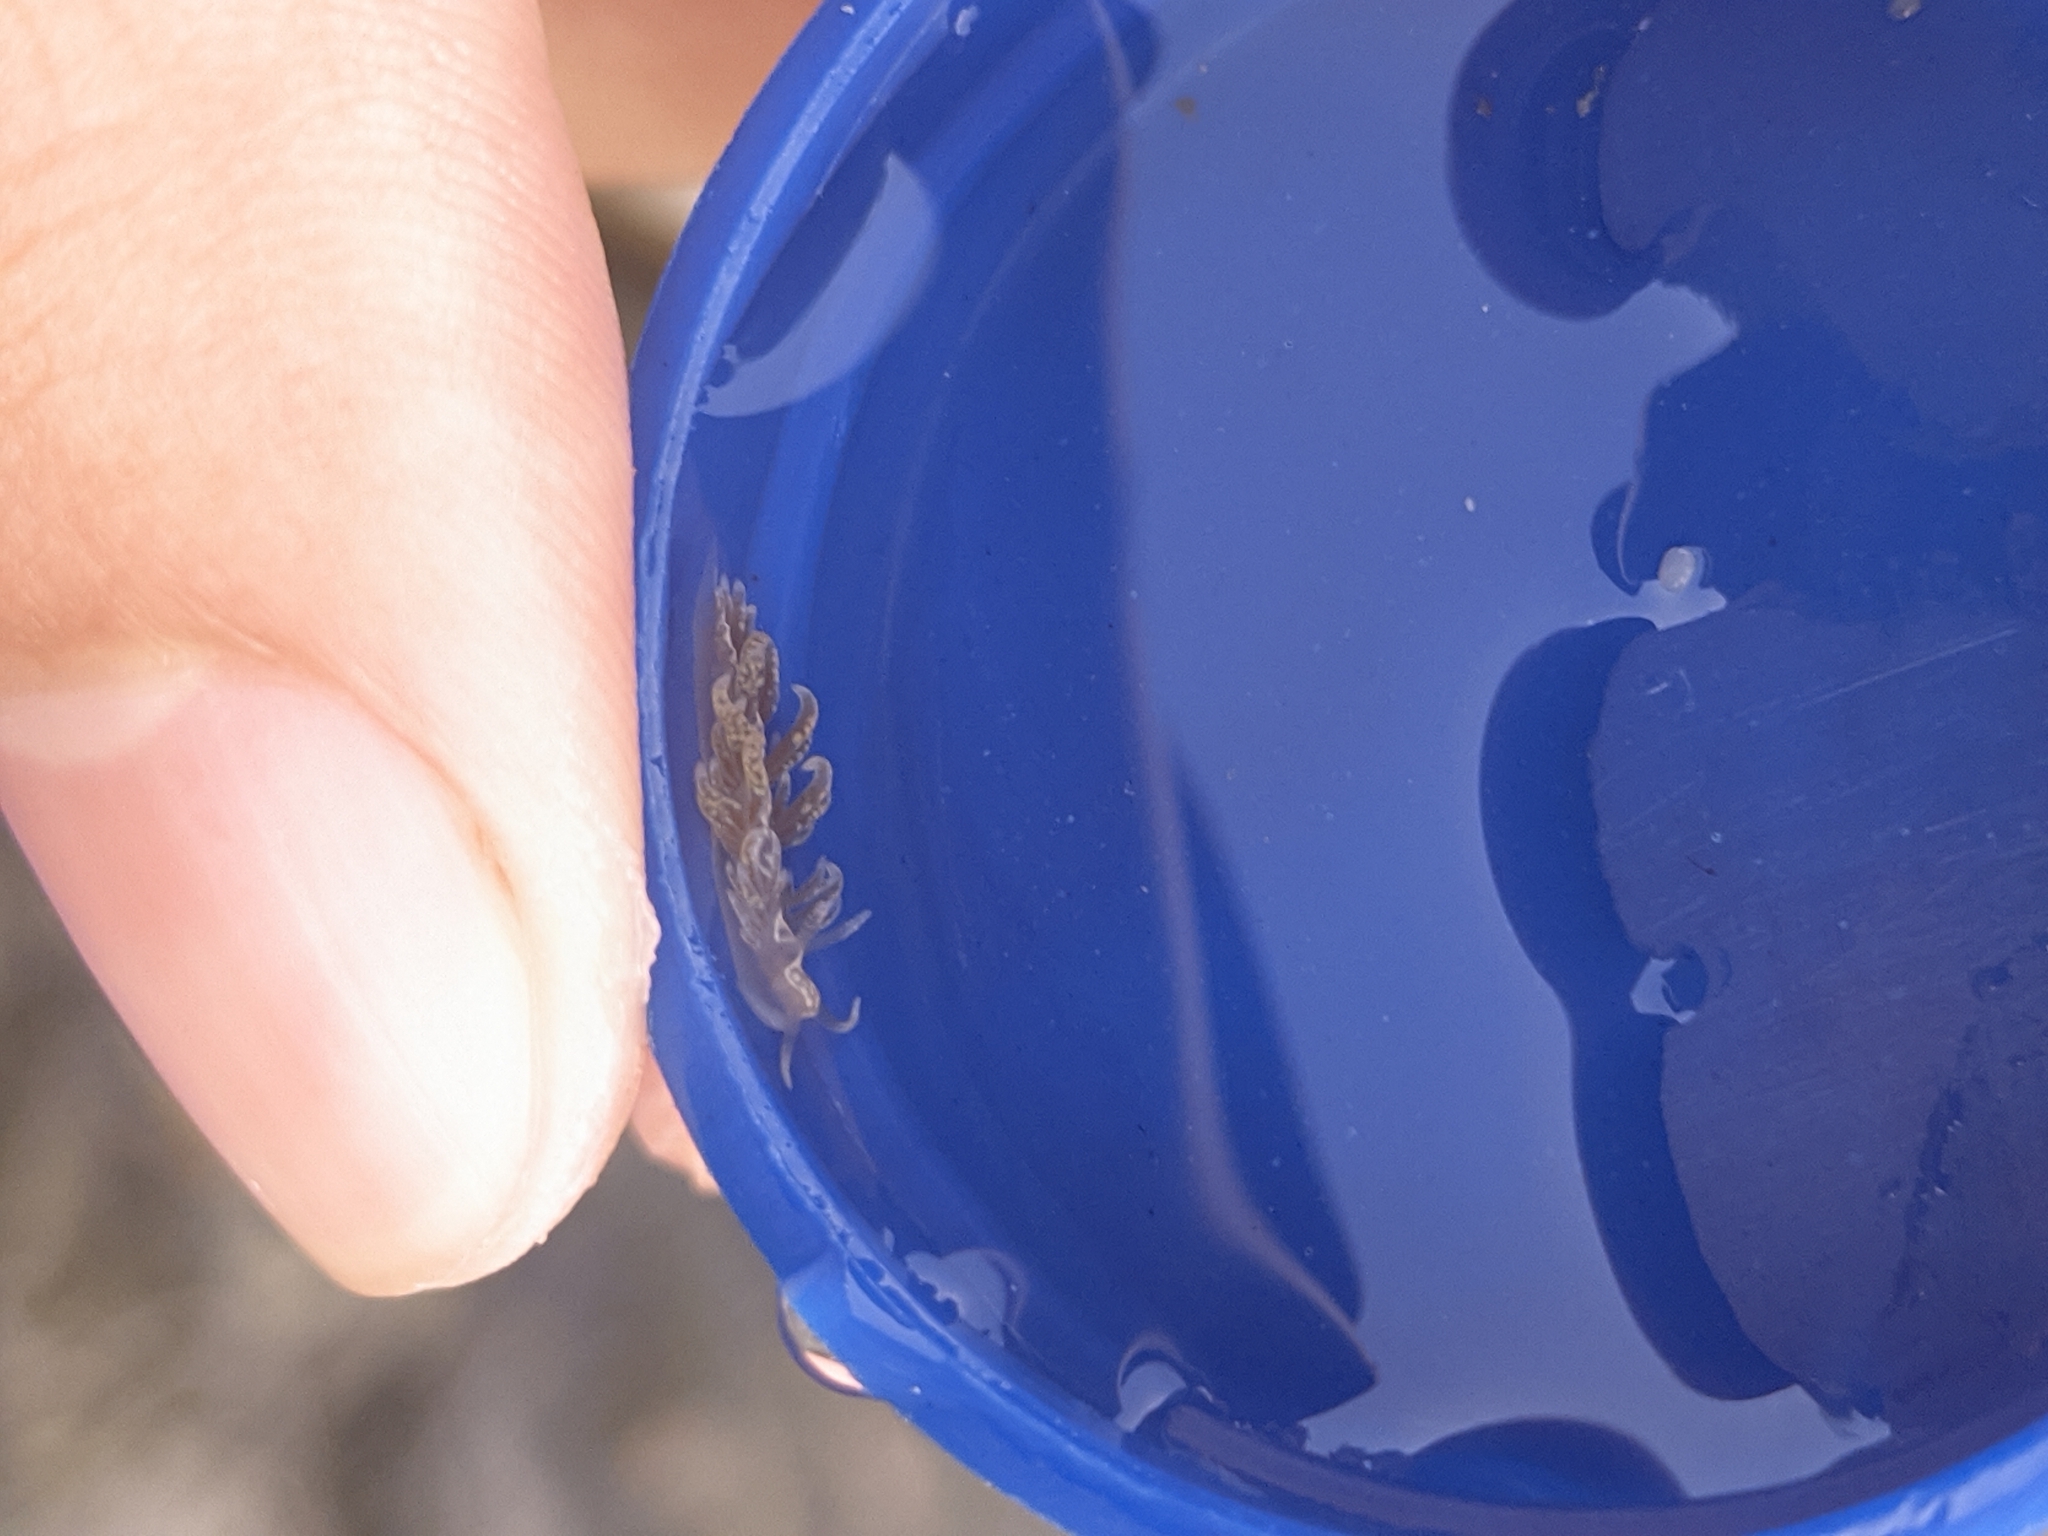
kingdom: Animalia
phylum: Mollusca
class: Gastropoda
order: Nudibranchia
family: Aeolidiidae
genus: Spurilla
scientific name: Spurilla braziliana
